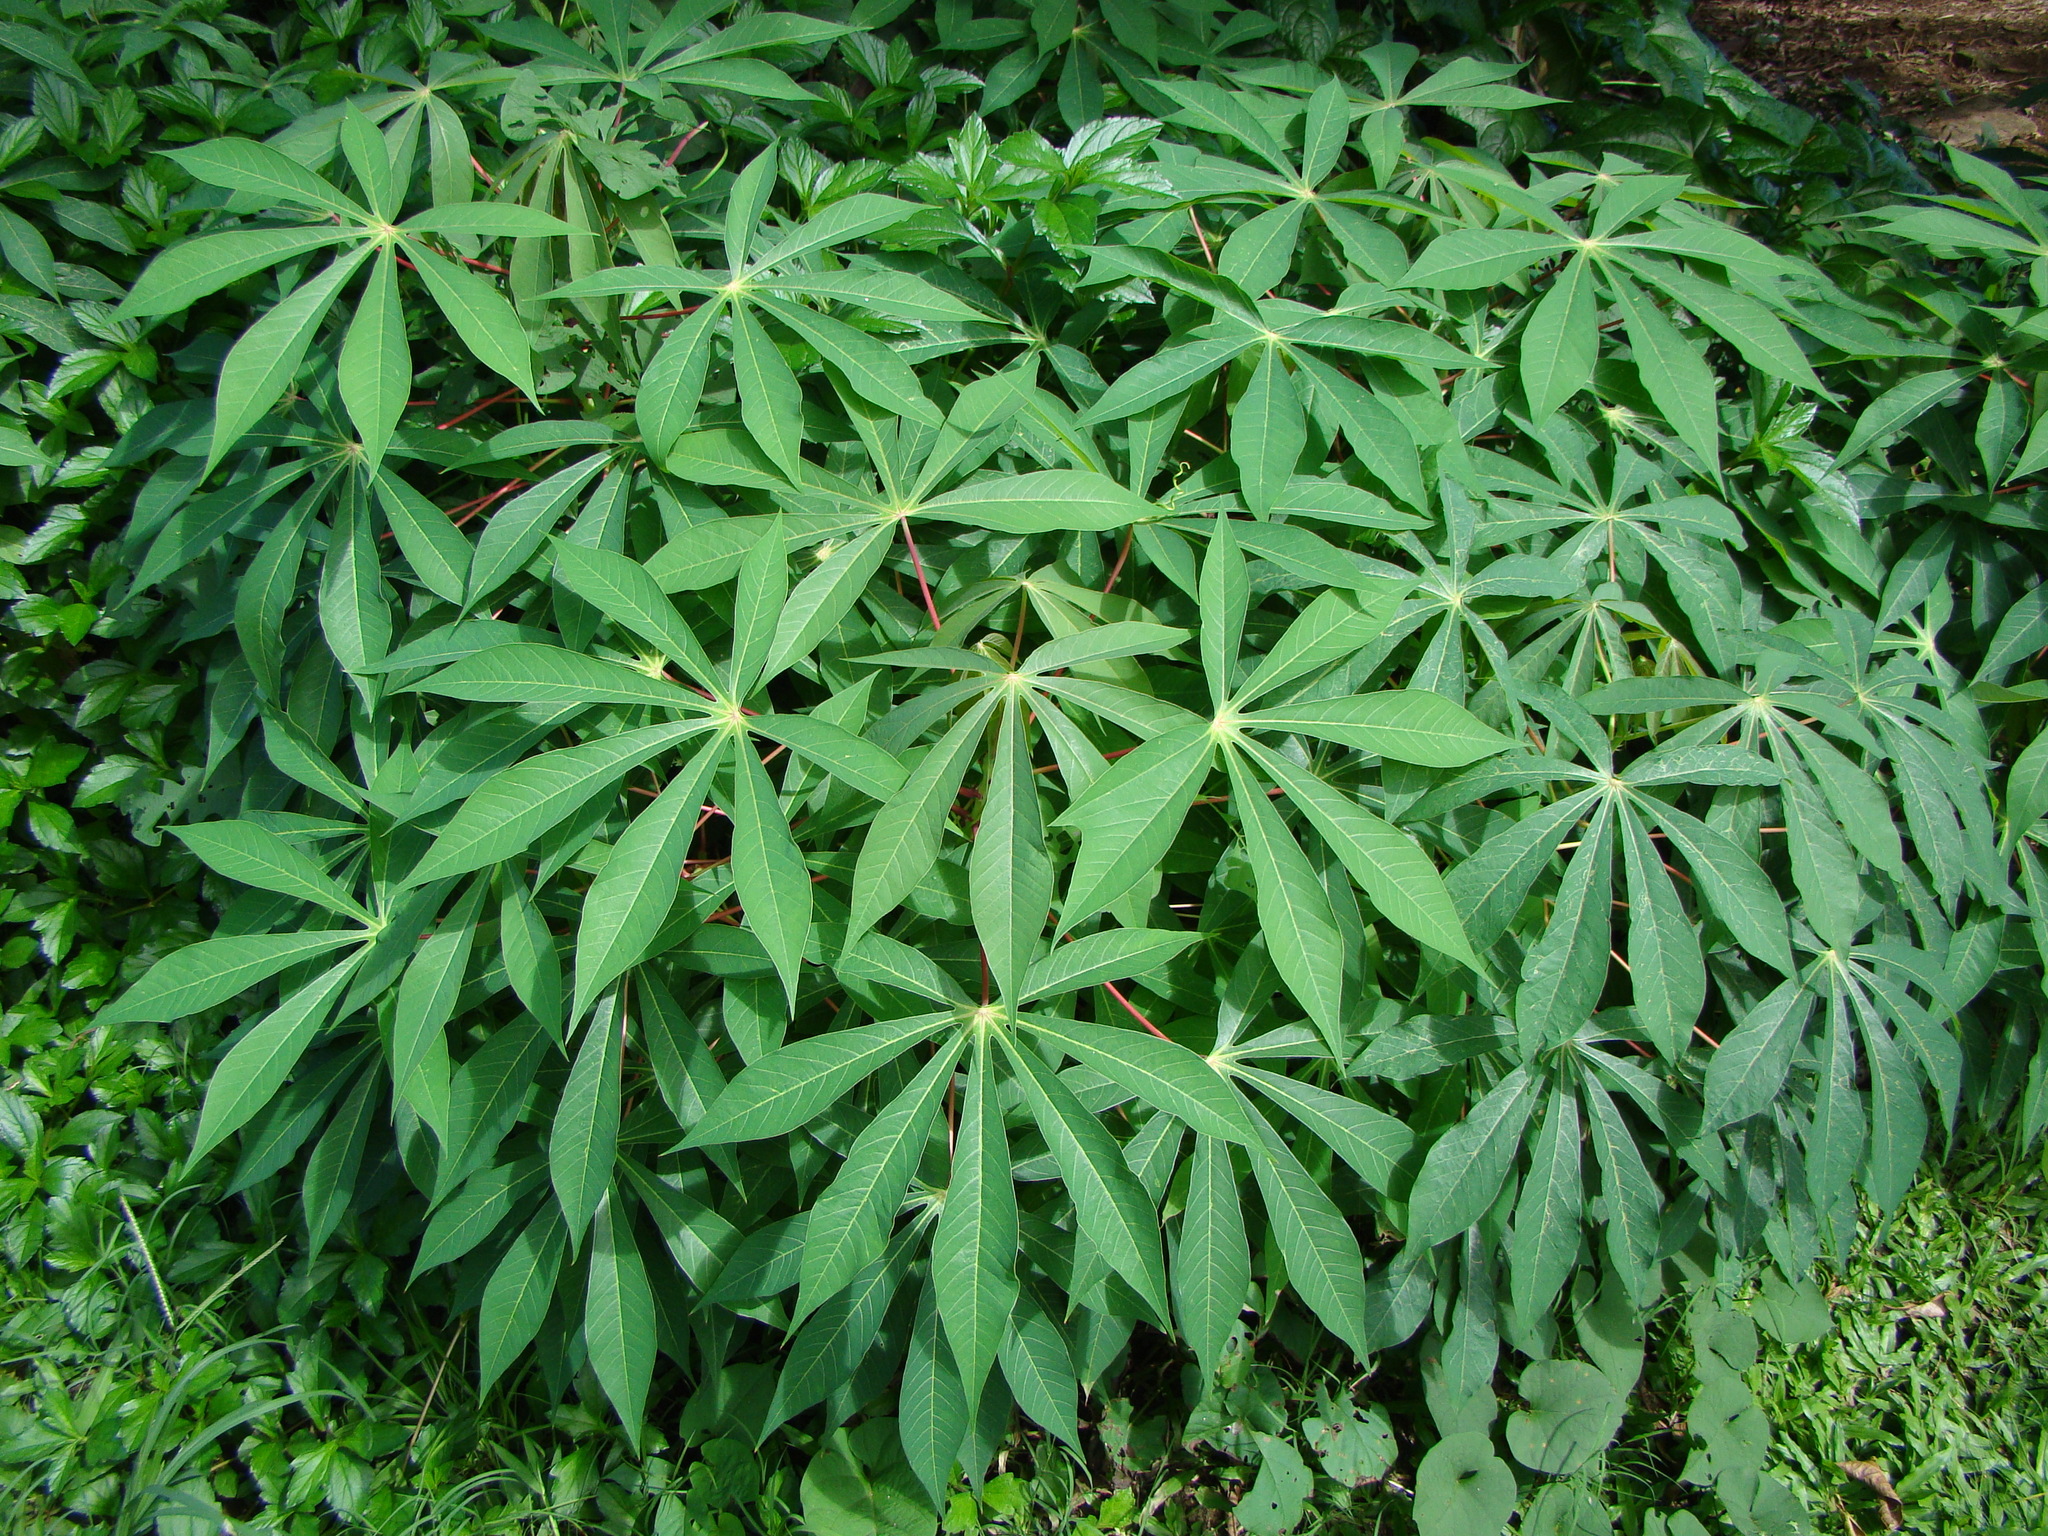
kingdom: Plantae
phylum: Tracheophyta
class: Magnoliopsida
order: Malpighiales
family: Euphorbiaceae
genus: Manihot
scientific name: Manihot esculenta
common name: Cassava
